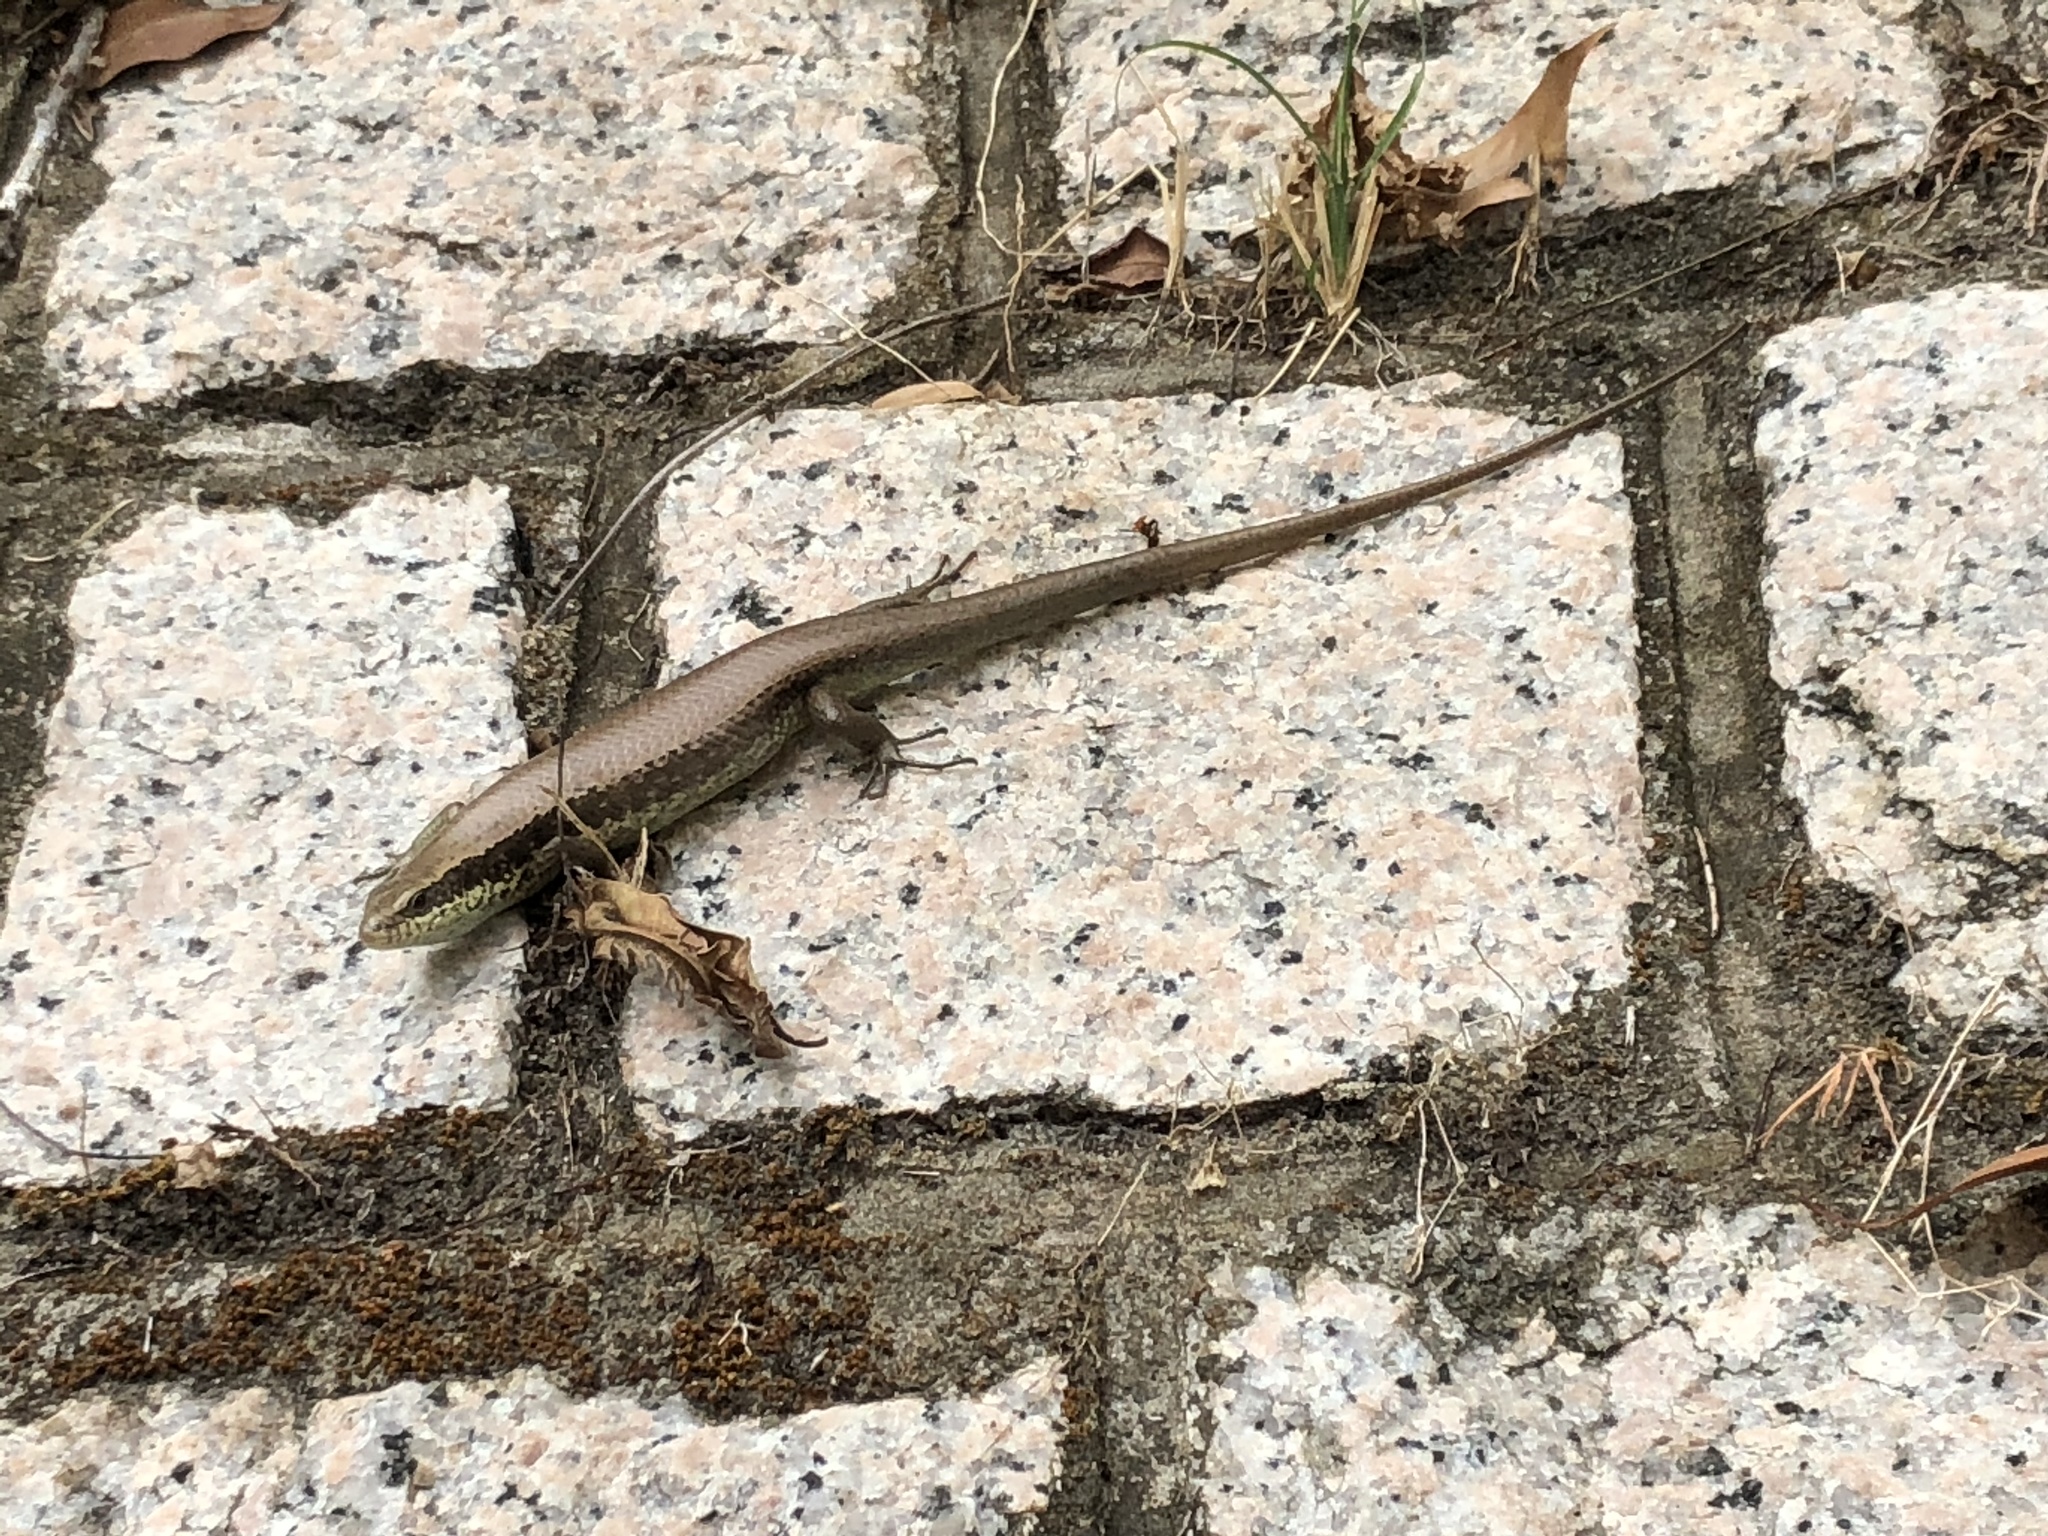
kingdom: Animalia
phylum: Chordata
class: Squamata
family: Scincidae
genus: Eutropis
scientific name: Eutropis longicaudata
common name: Long-tailed sun skink
